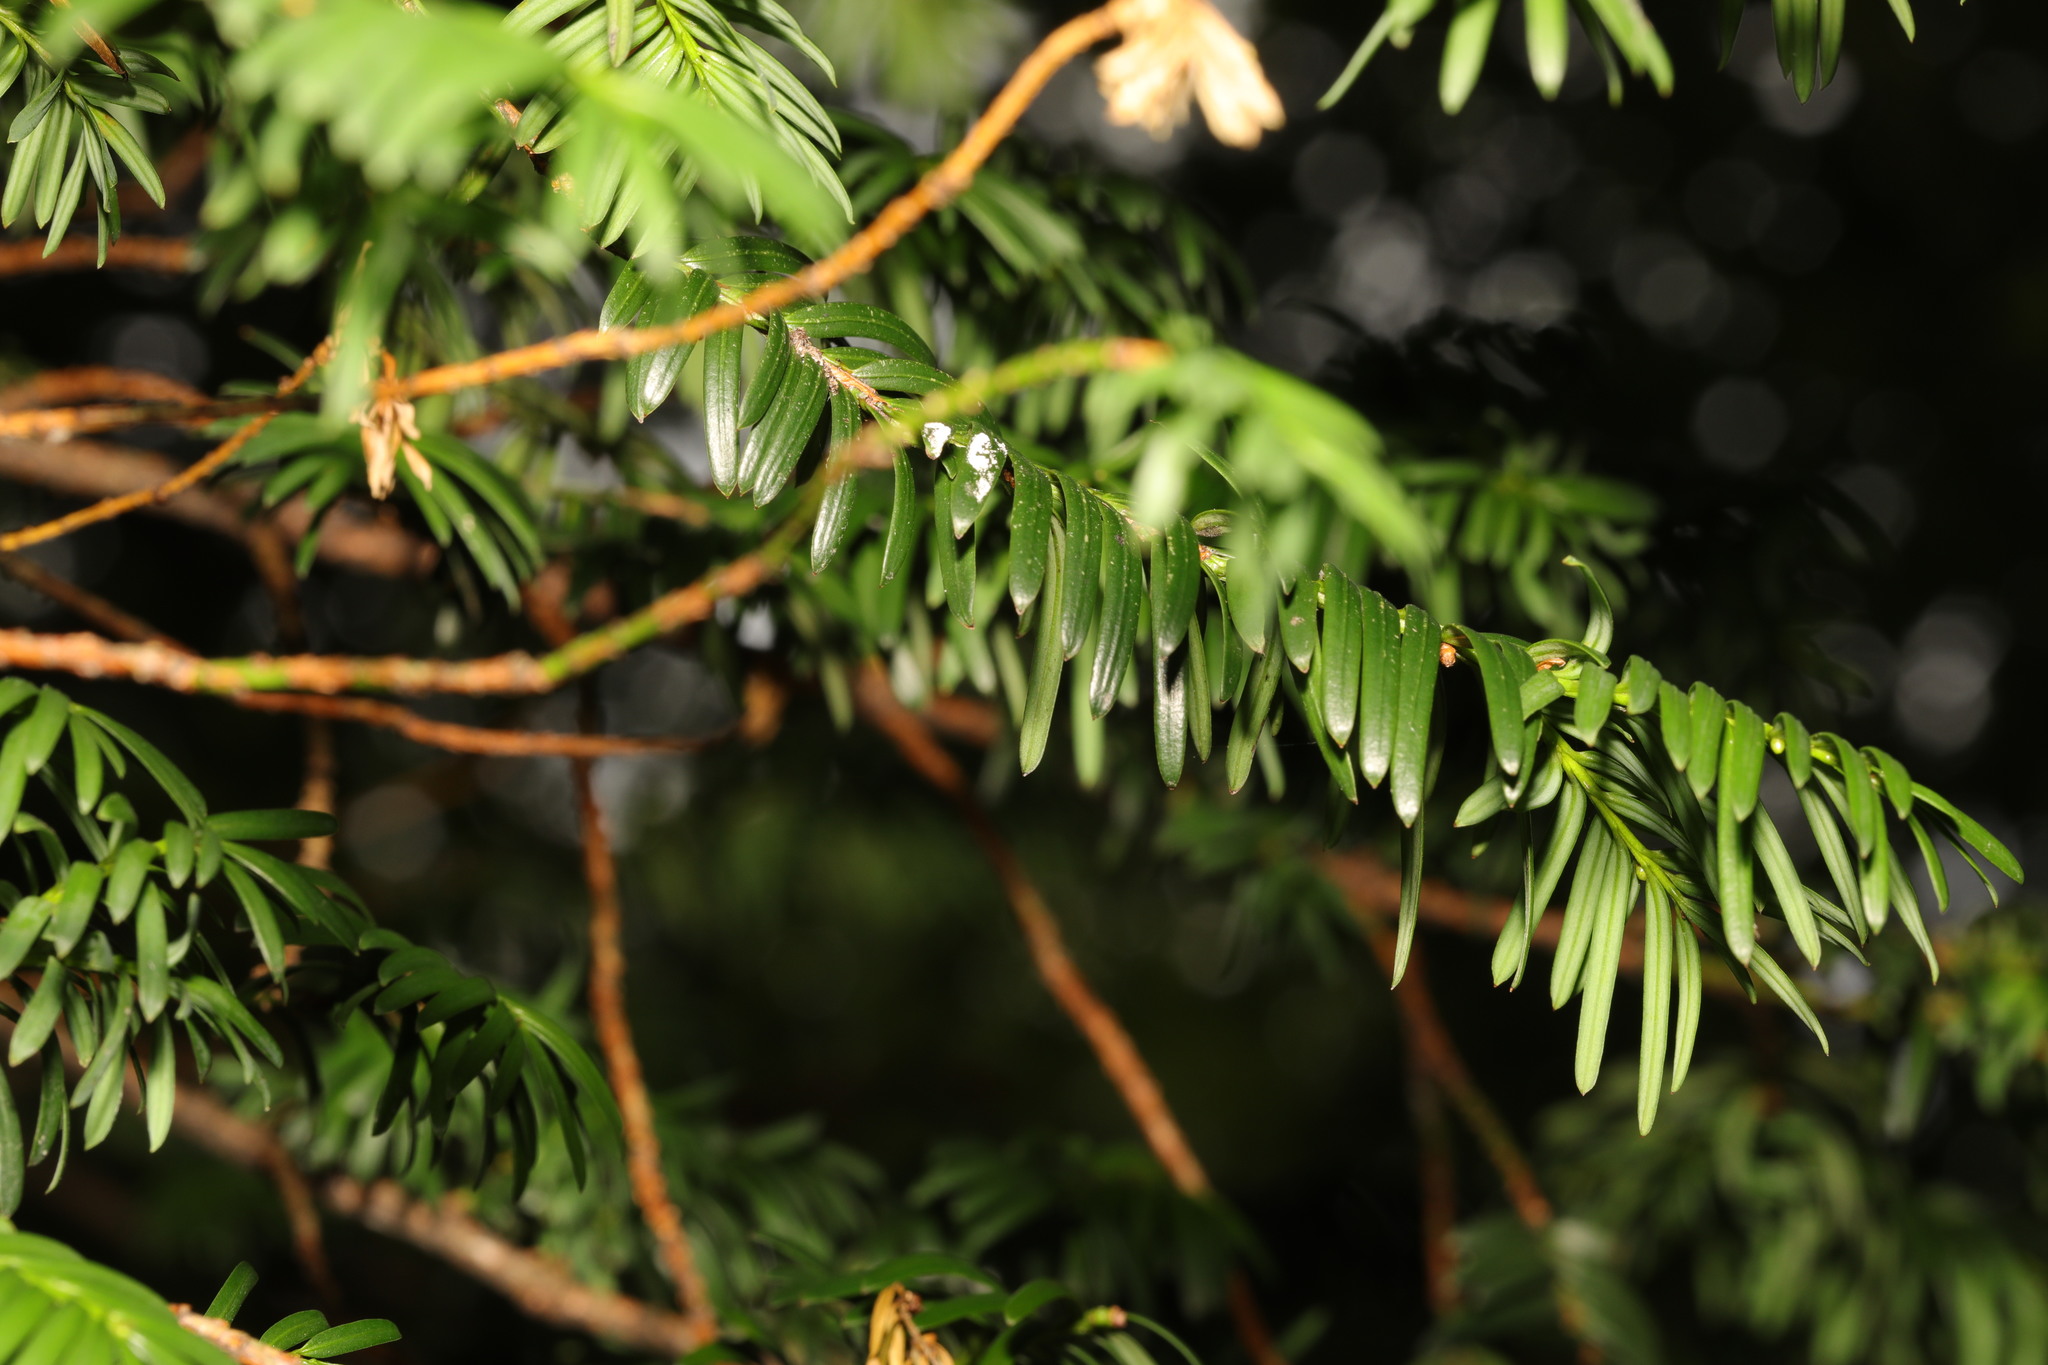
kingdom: Plantae
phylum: Tracheophyta
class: Pinopsida
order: Pinales
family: Taxaceae
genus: Taxus
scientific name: Taxus baccata
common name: Yew
